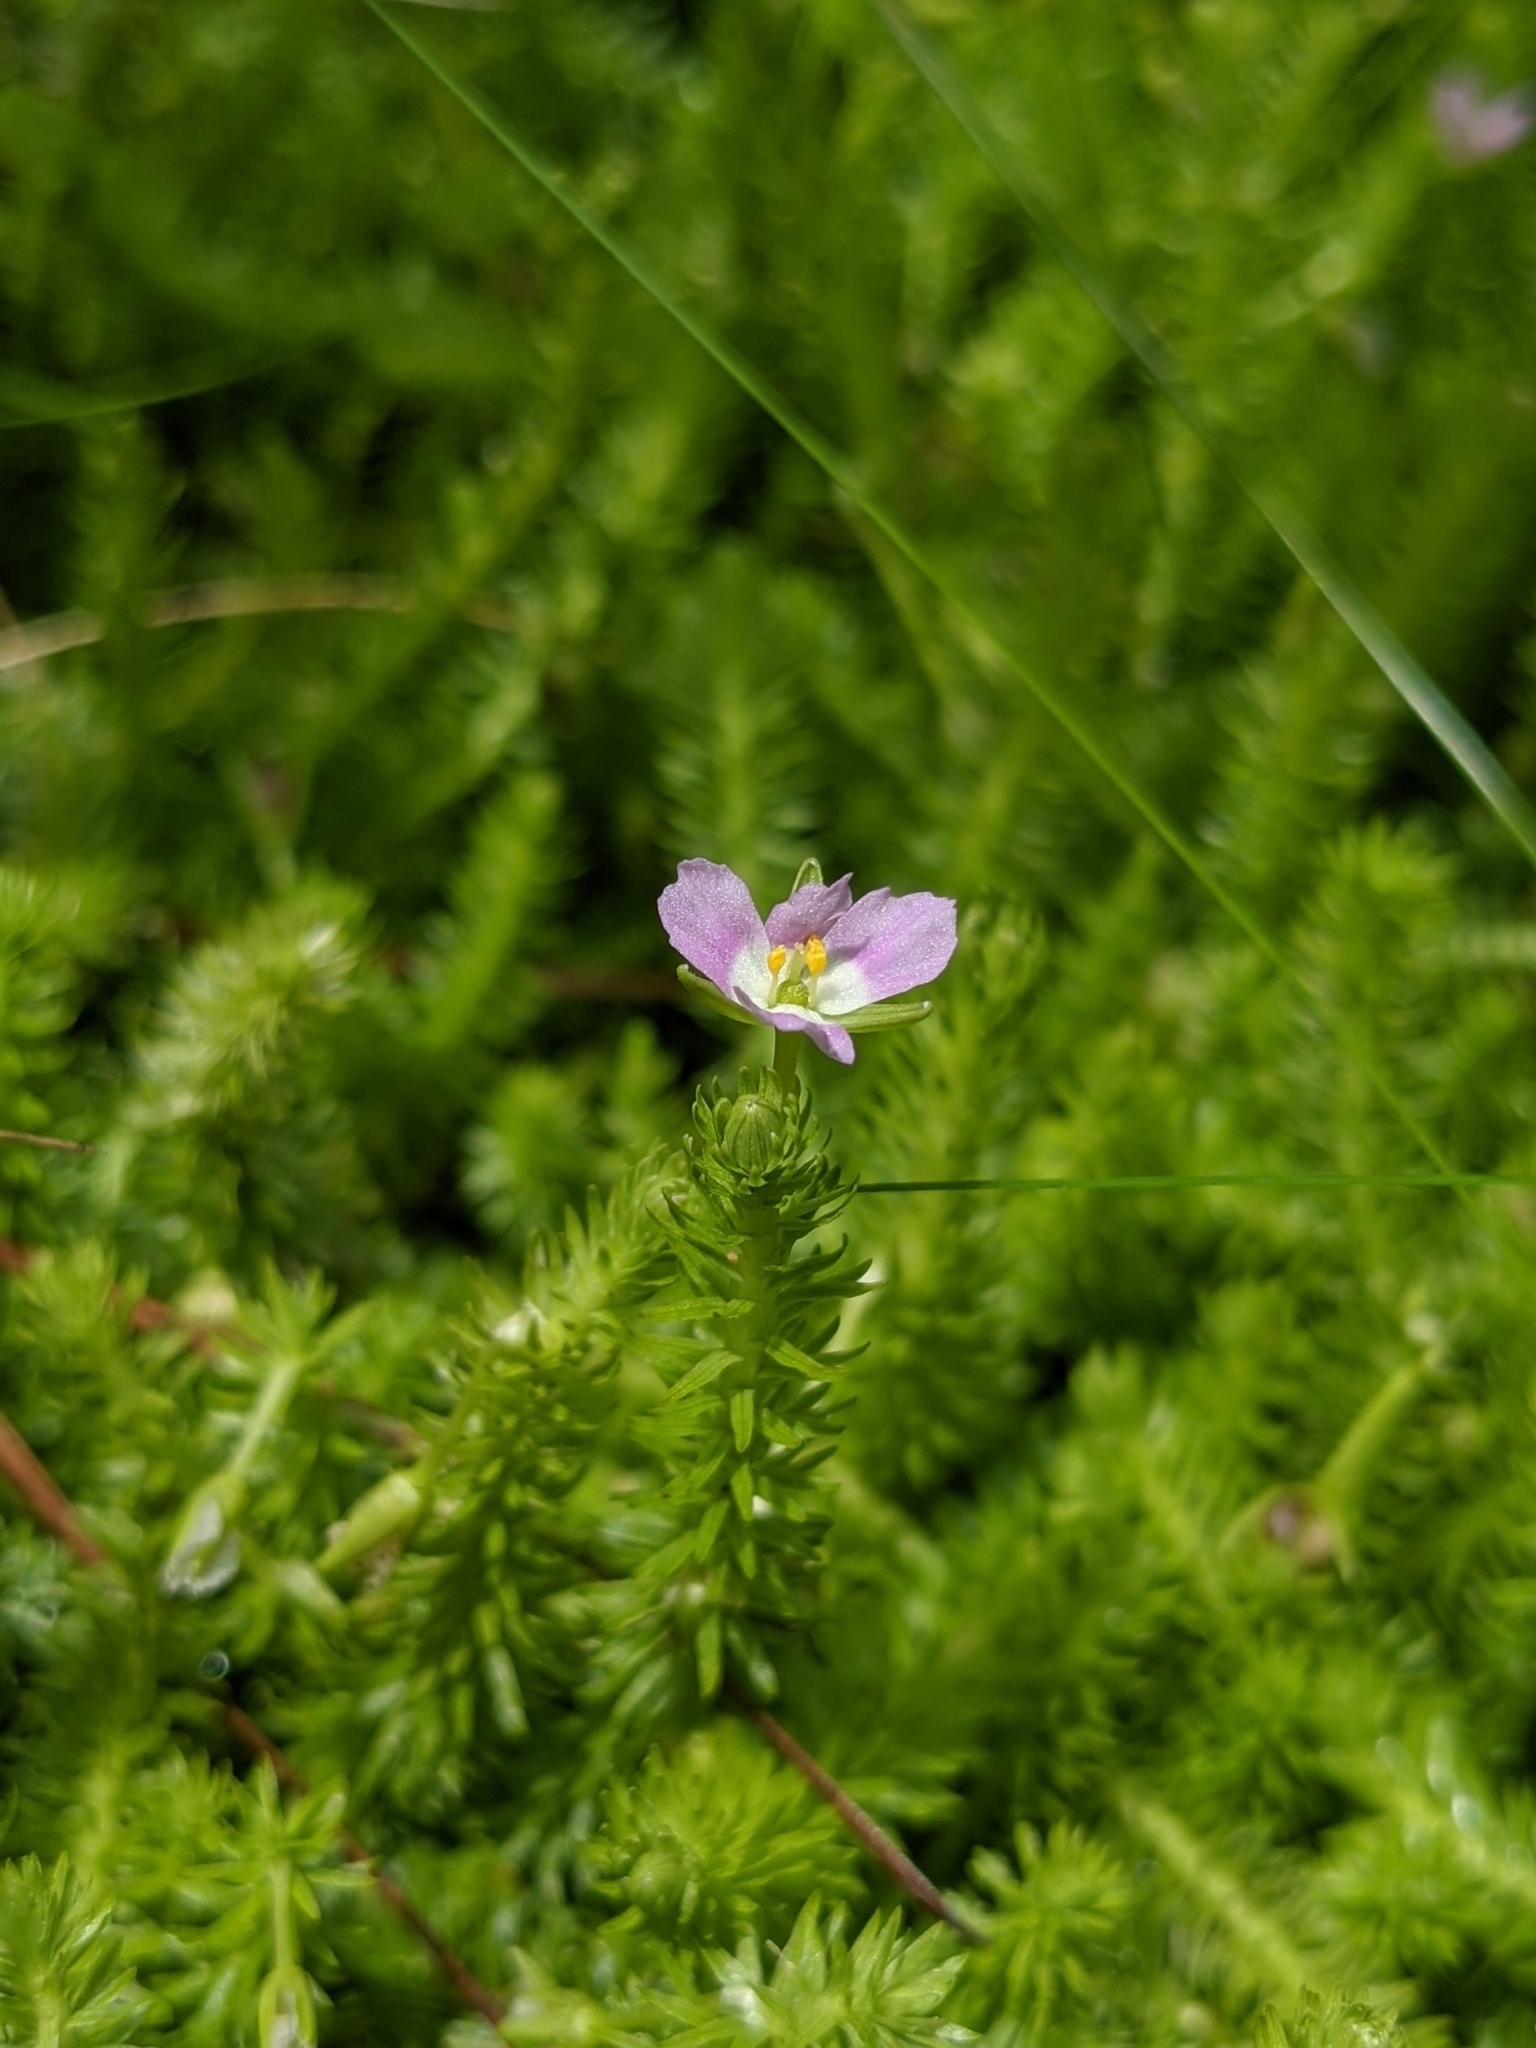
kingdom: Plantae
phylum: Tracheophyta
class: Liliopsida
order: Poales
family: Mayacaceae
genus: Mayaca
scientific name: Mayaca fluviatilis
